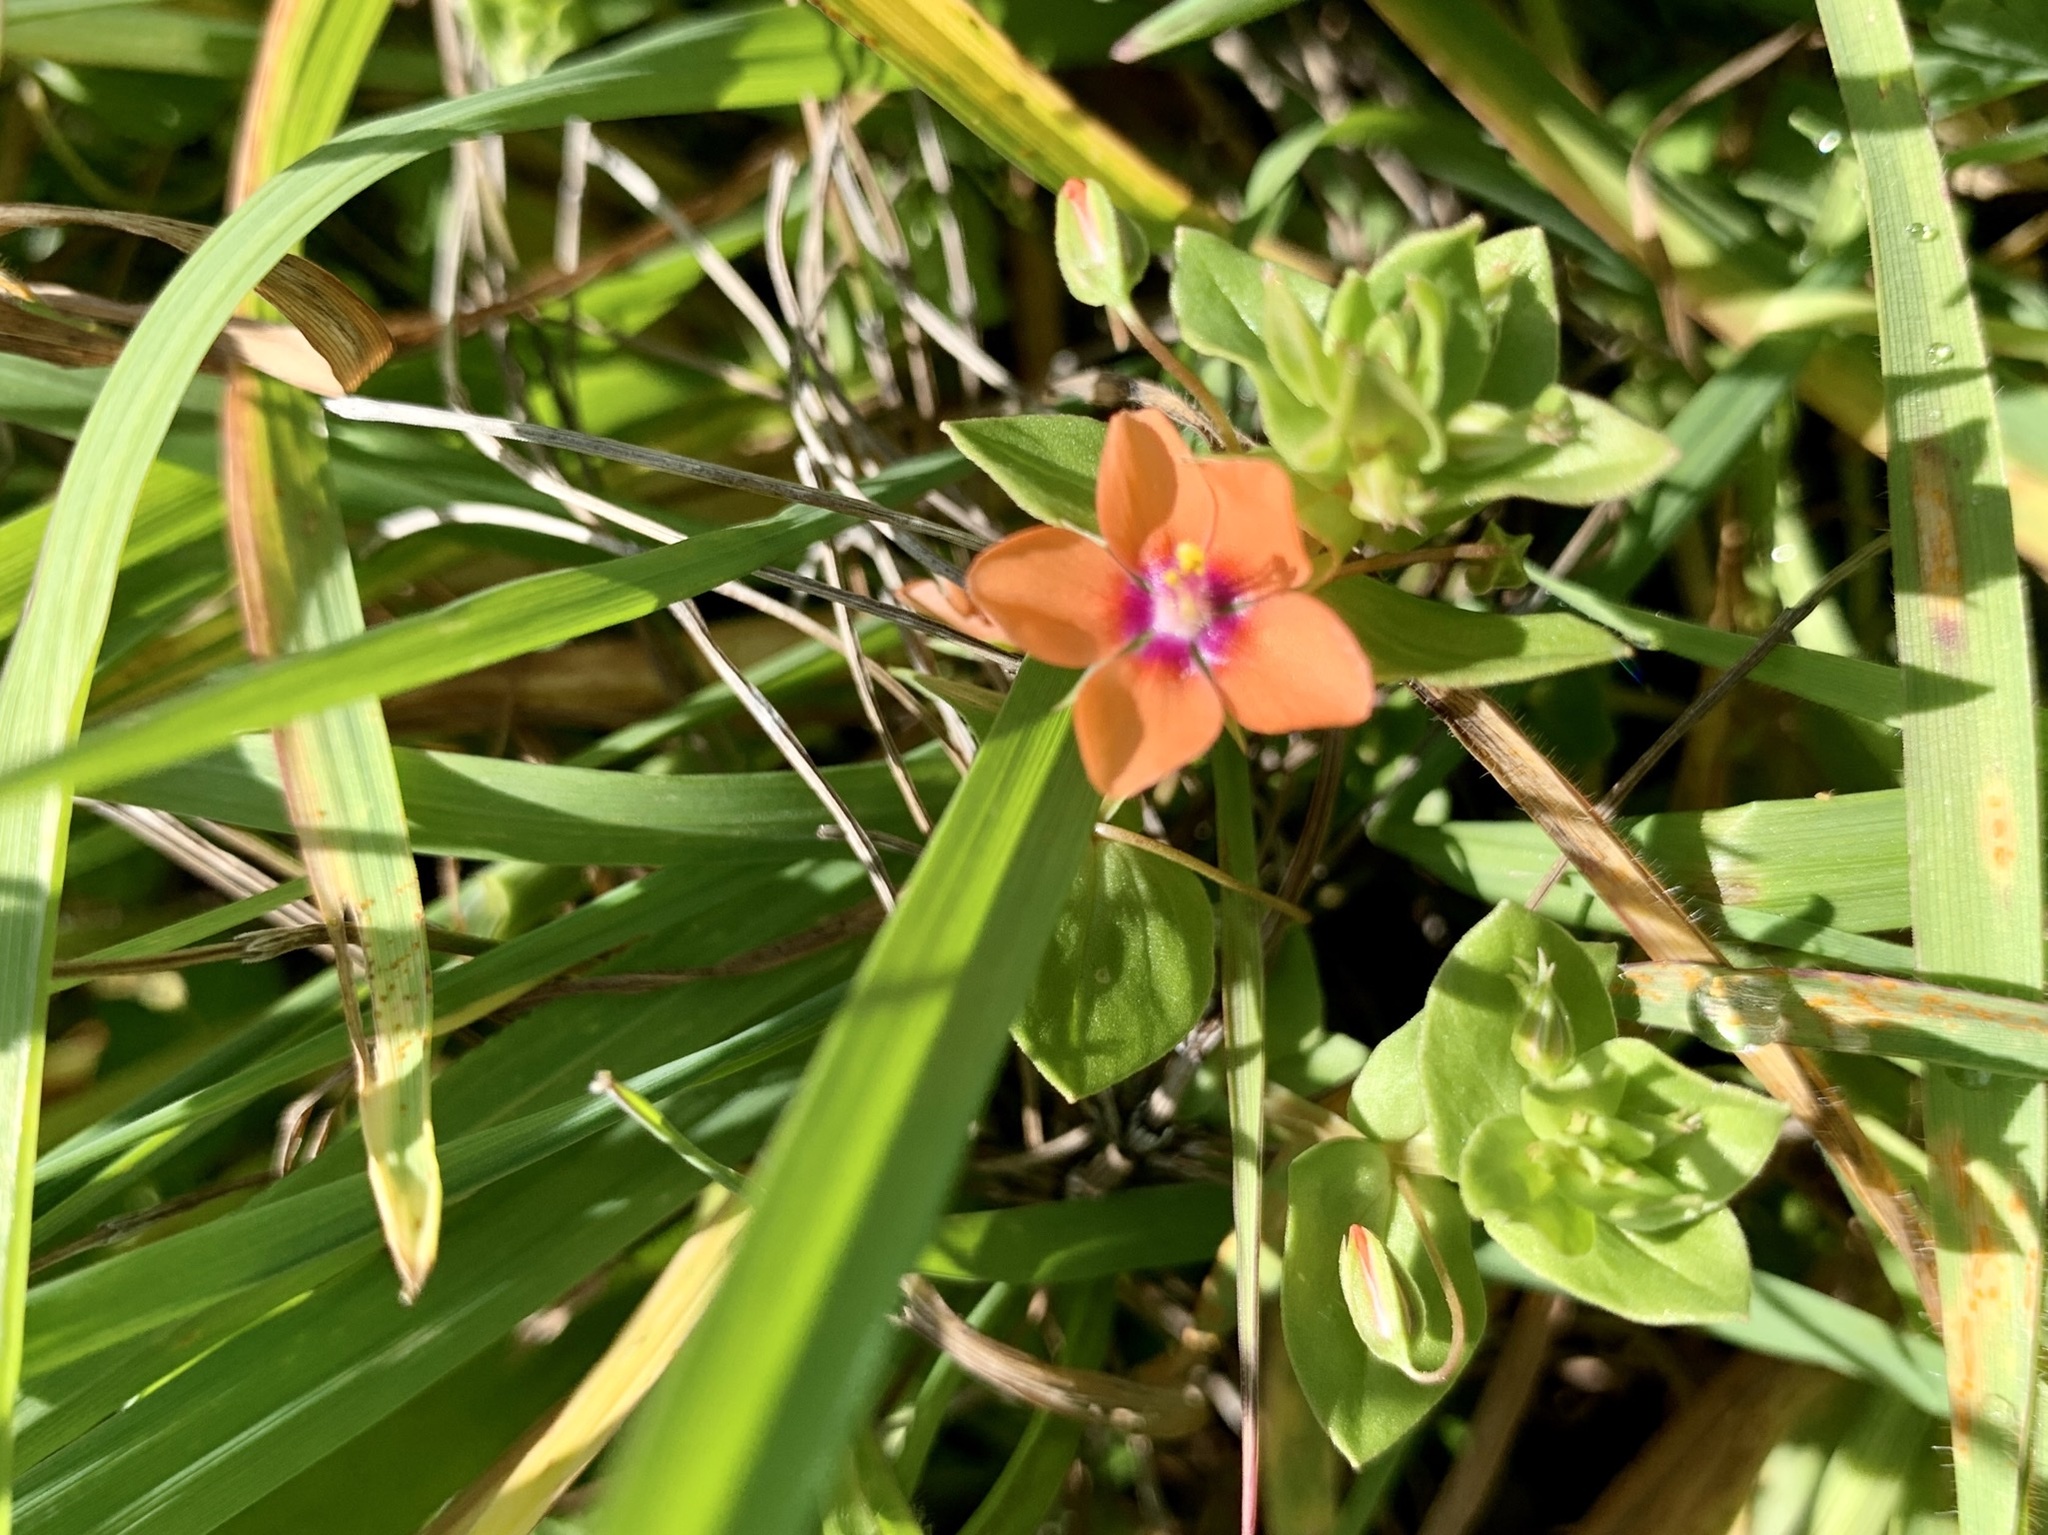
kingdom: Plantae
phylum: Tracheophyta
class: Magnoliopsida
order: Ericales
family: Primulaceae
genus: Lysimachia
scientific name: Lysimachia arvensis
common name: Scarlet pimpernel
